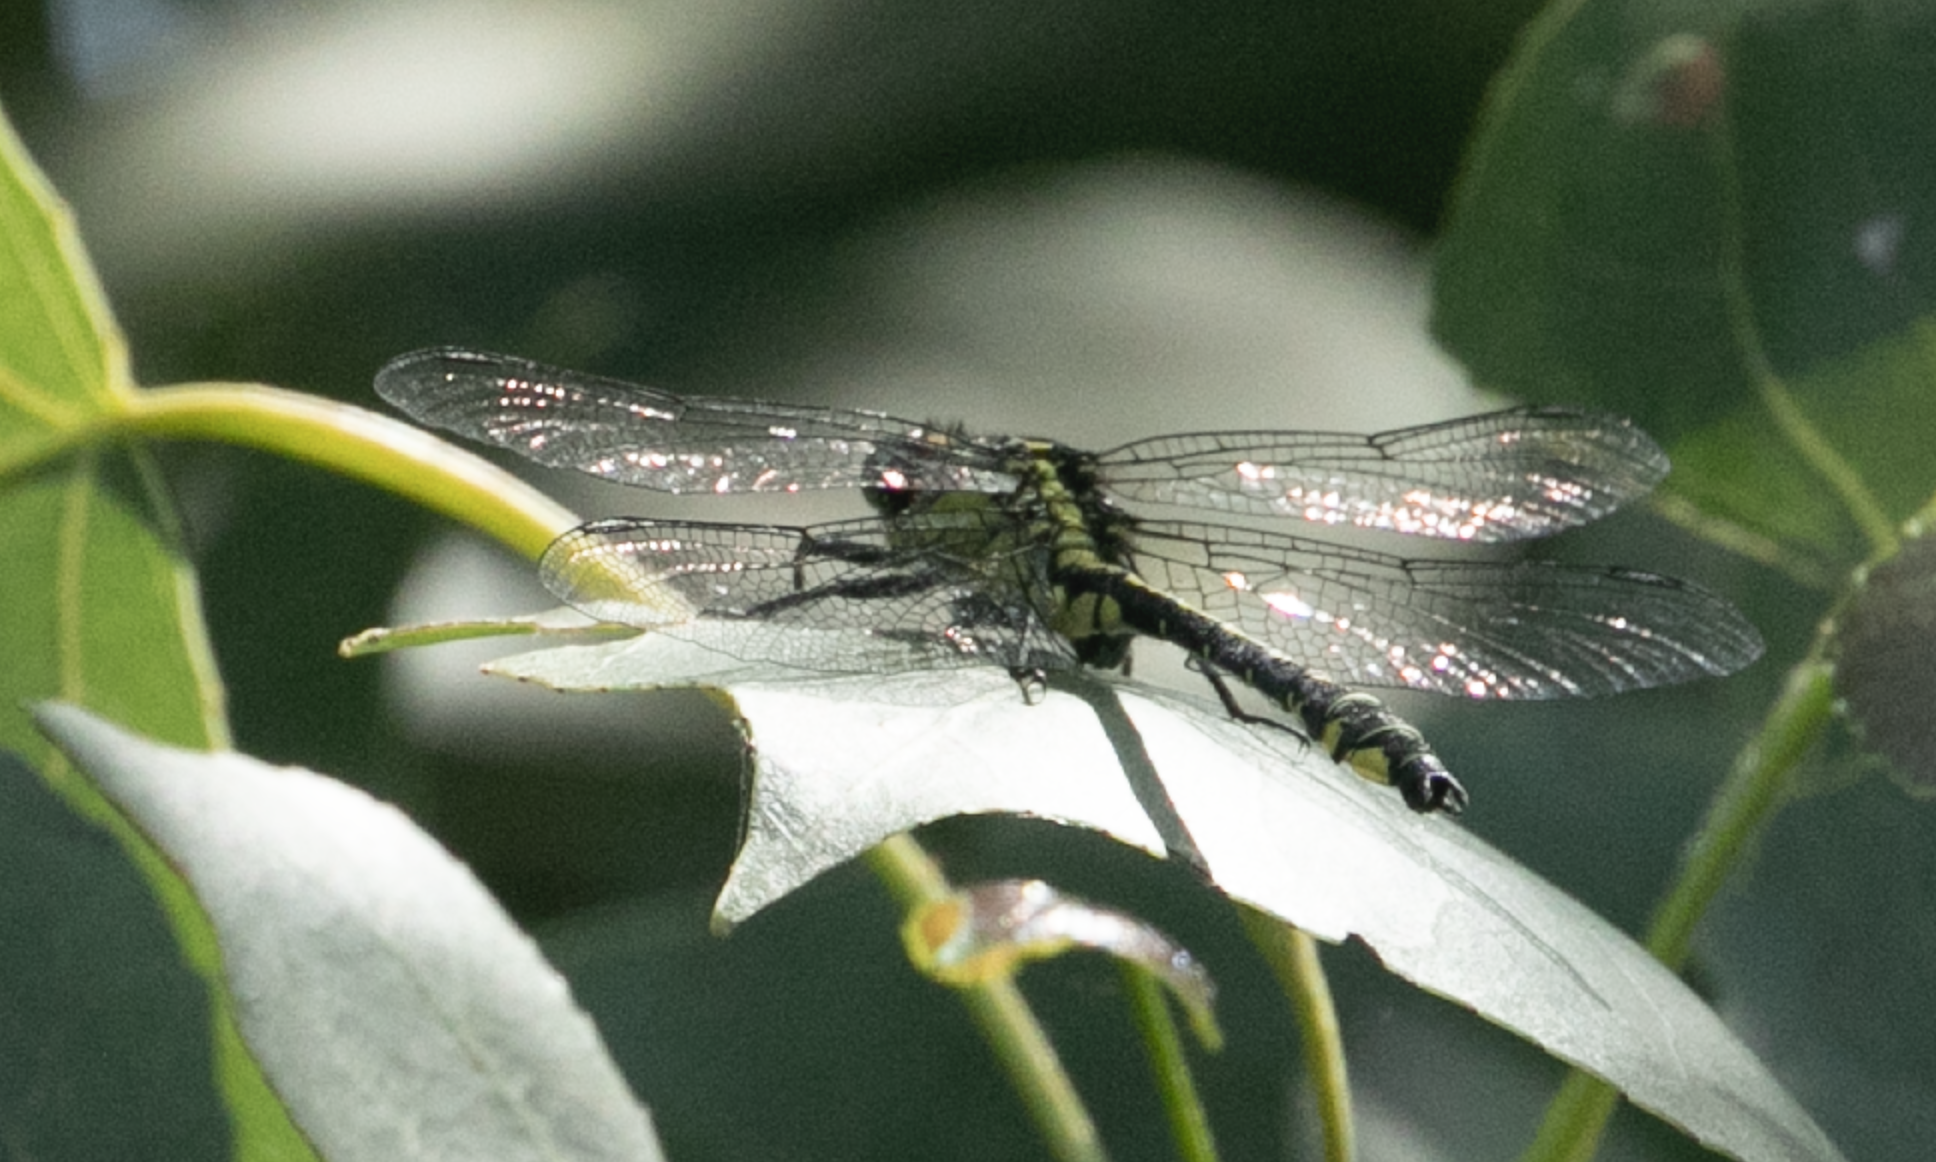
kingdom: Animalia
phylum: Arthropoda
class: Insecta
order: Odonata
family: Gomphidae
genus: Gomphus
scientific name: Gomphus vulgatissimus
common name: Club-tailed dragonfly
